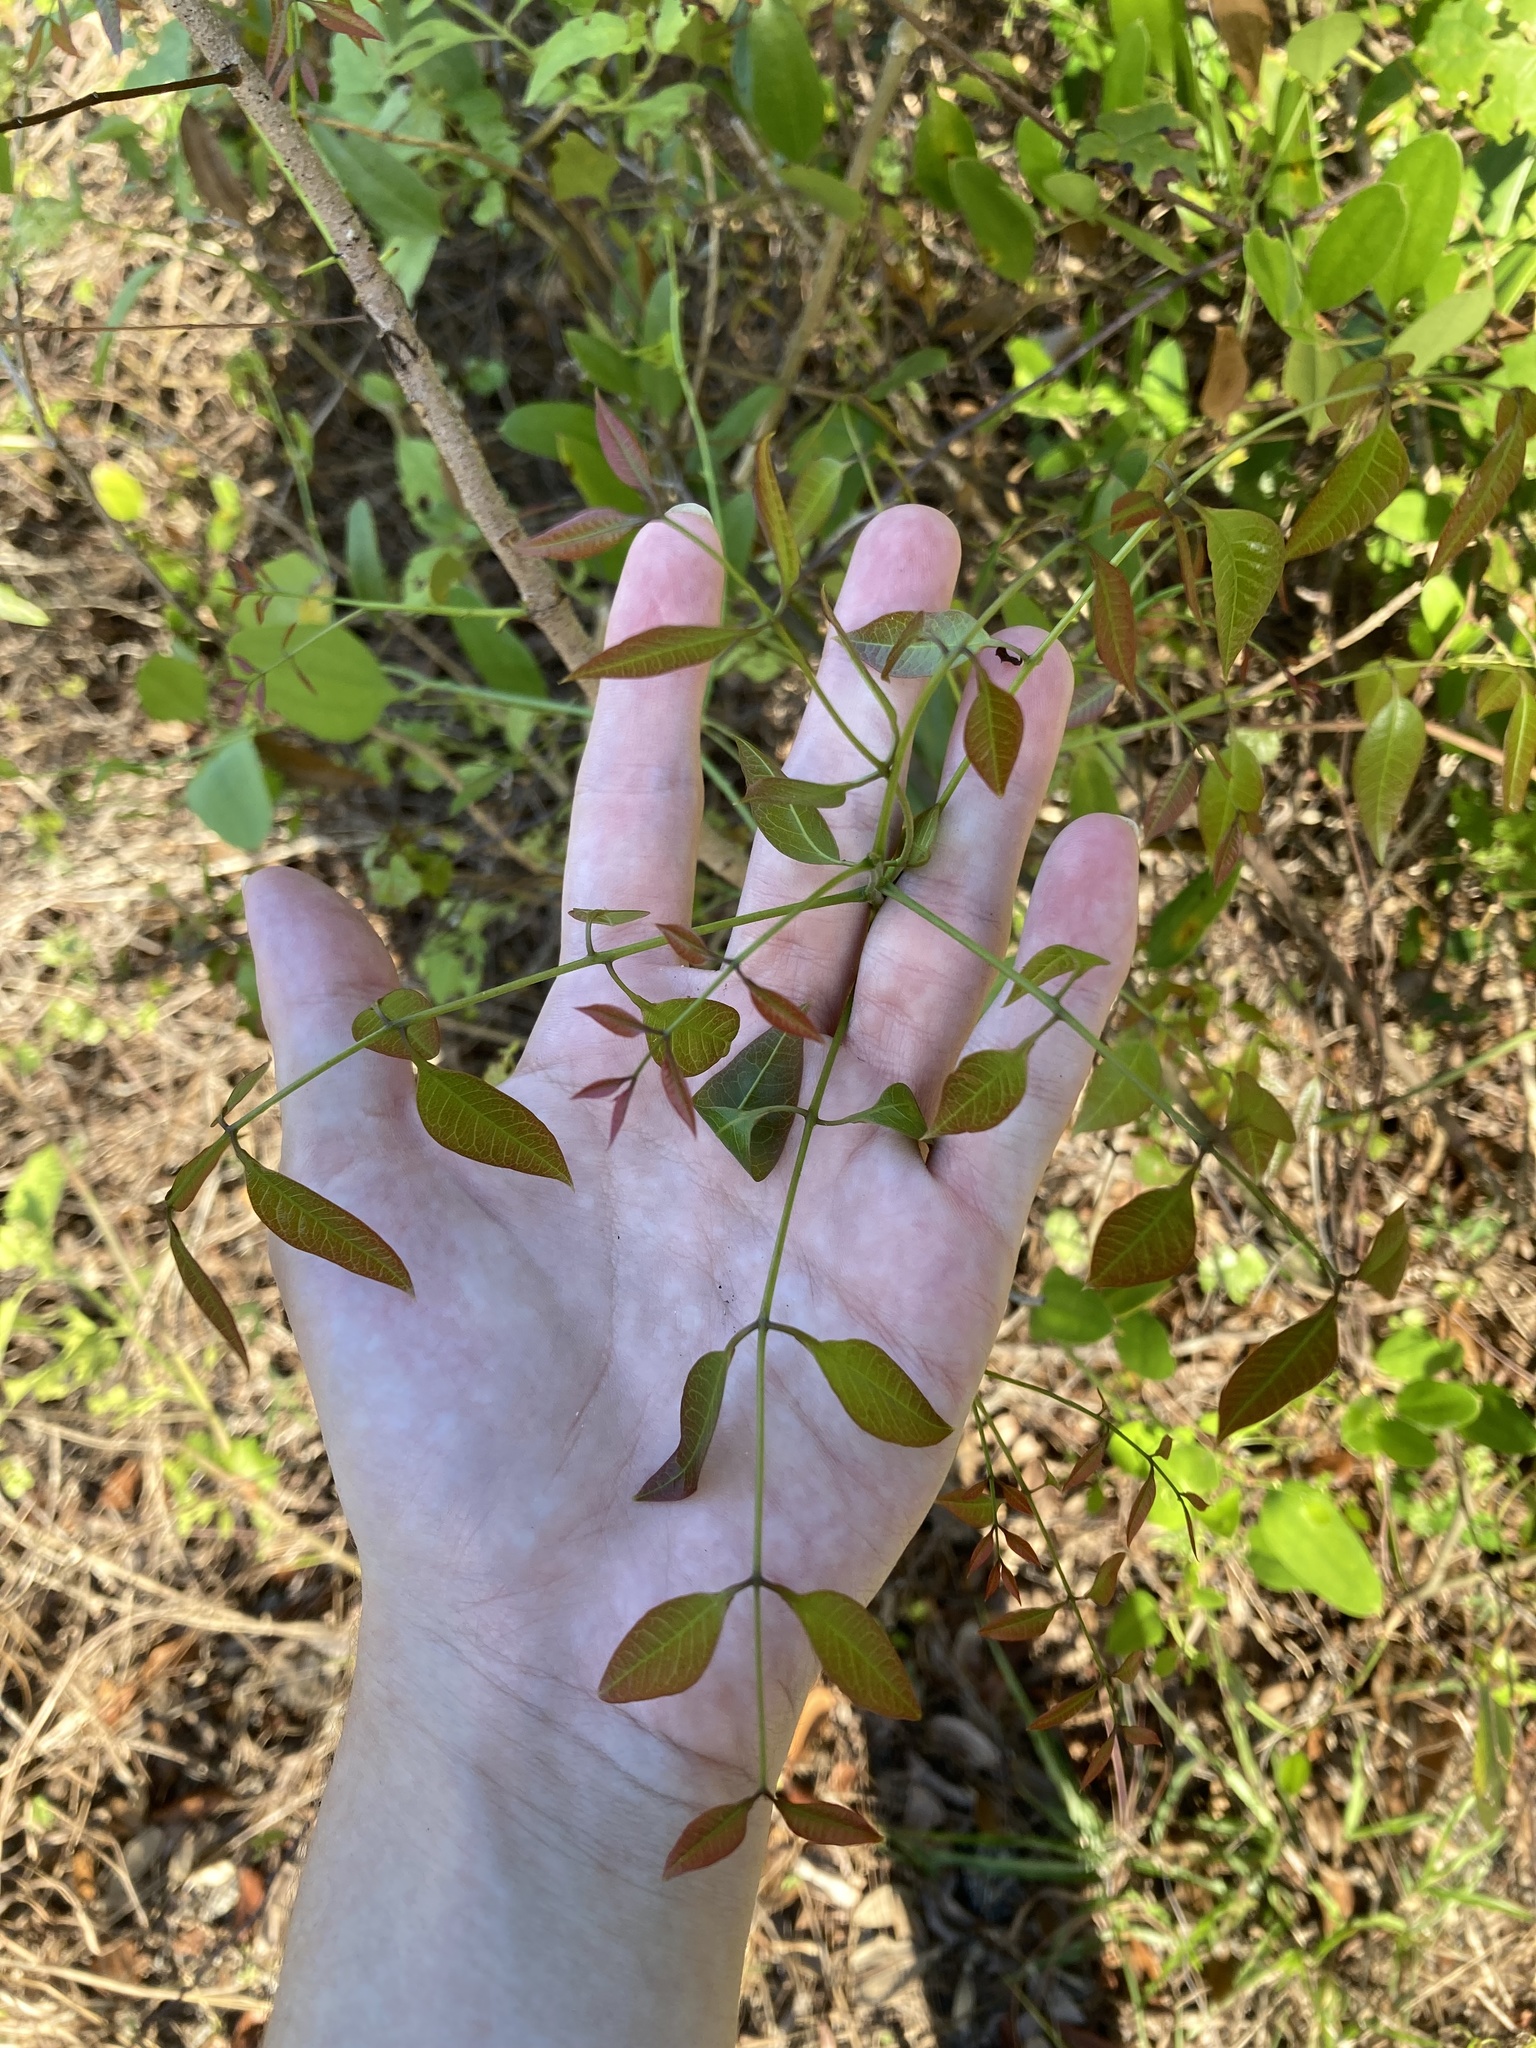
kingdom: Plantae
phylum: Tracheophyta
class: Magnoliopsida
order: Sapindales
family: Meliaceae
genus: Swietenia
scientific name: Swietenia mahagoni
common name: West indian mahogany
